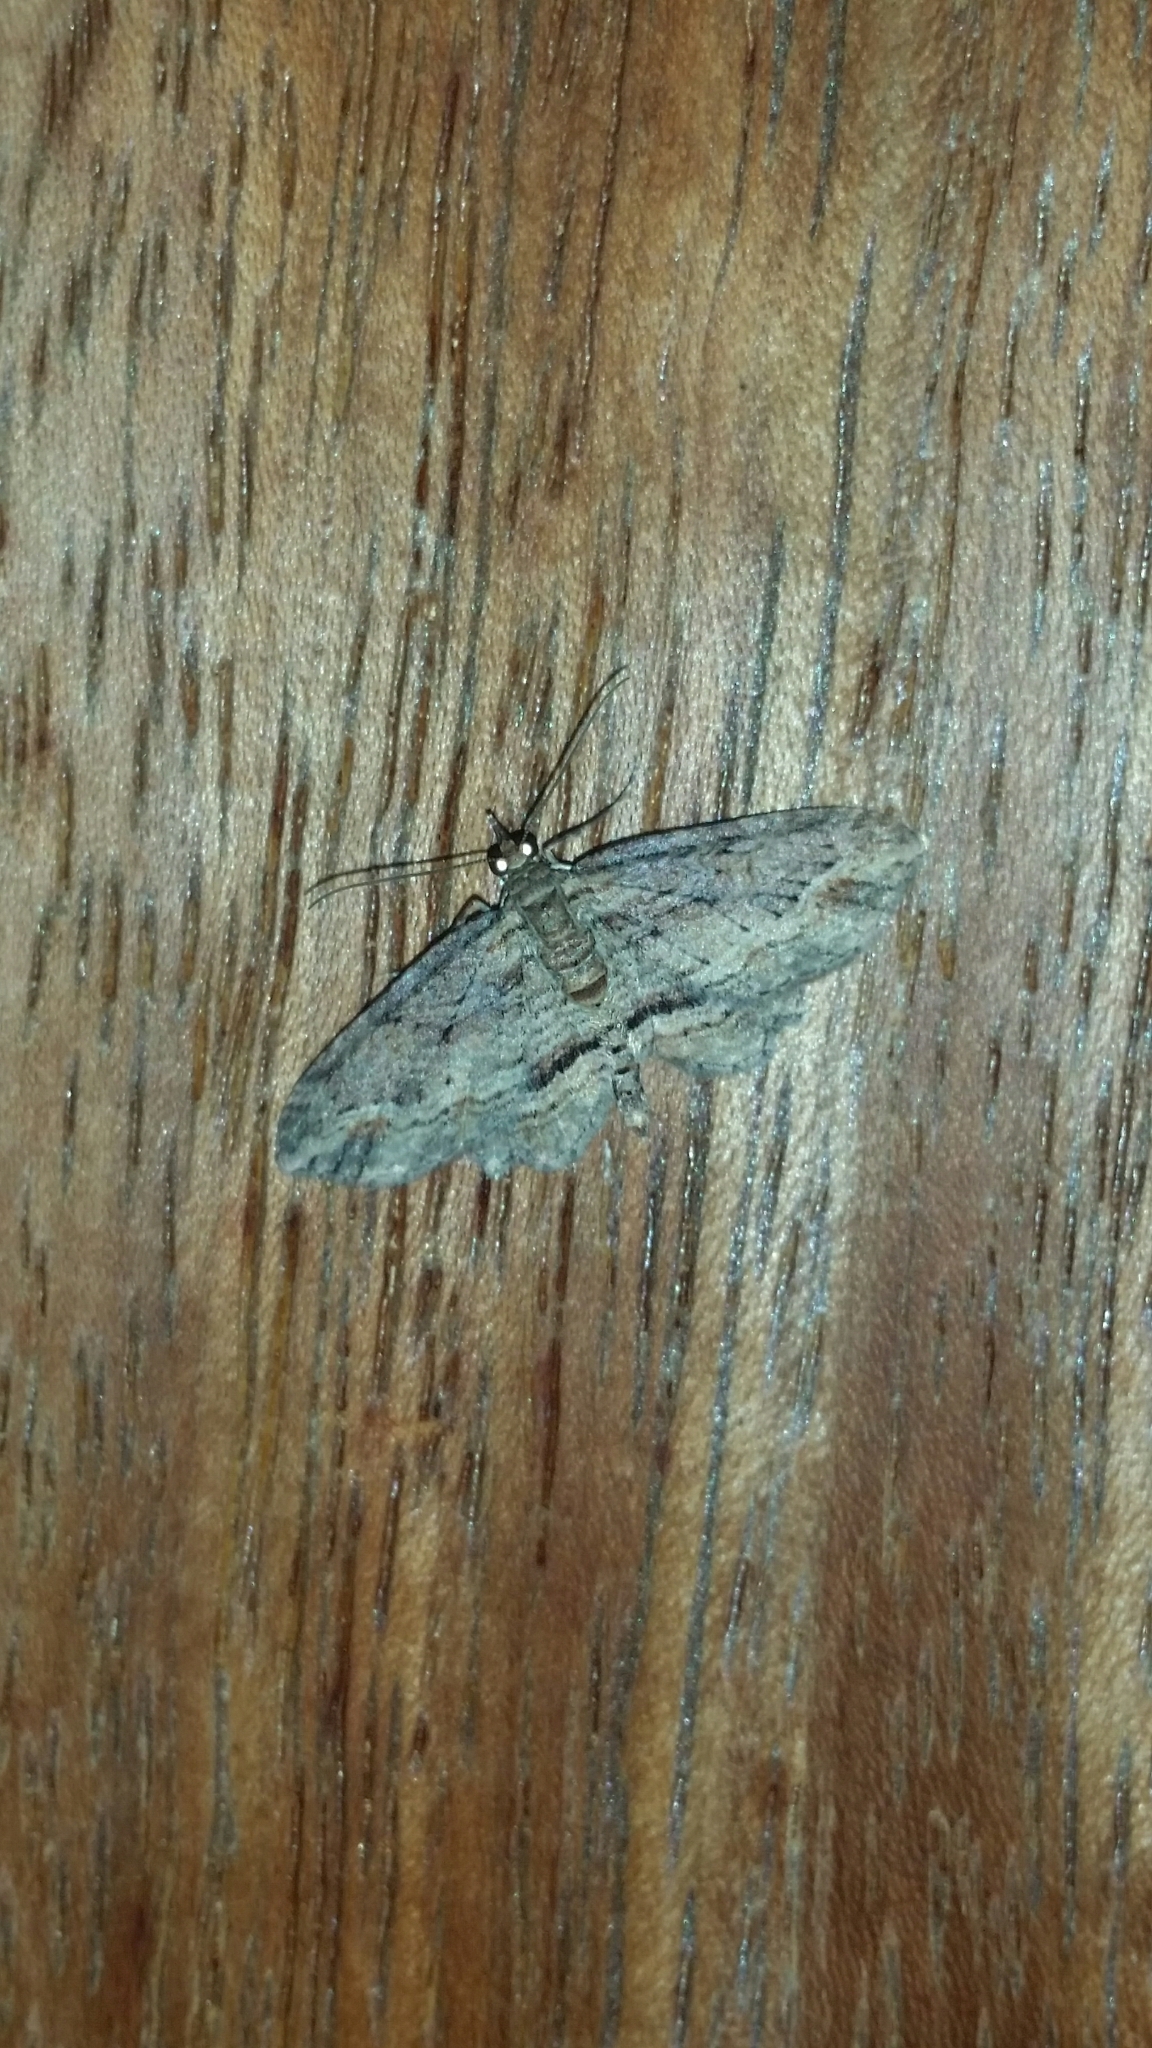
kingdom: Animalia
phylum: Arthropoda
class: Insecta
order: Lepidoptera
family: Geometridae
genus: Chloroclystis
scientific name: Chloroclystis filata
